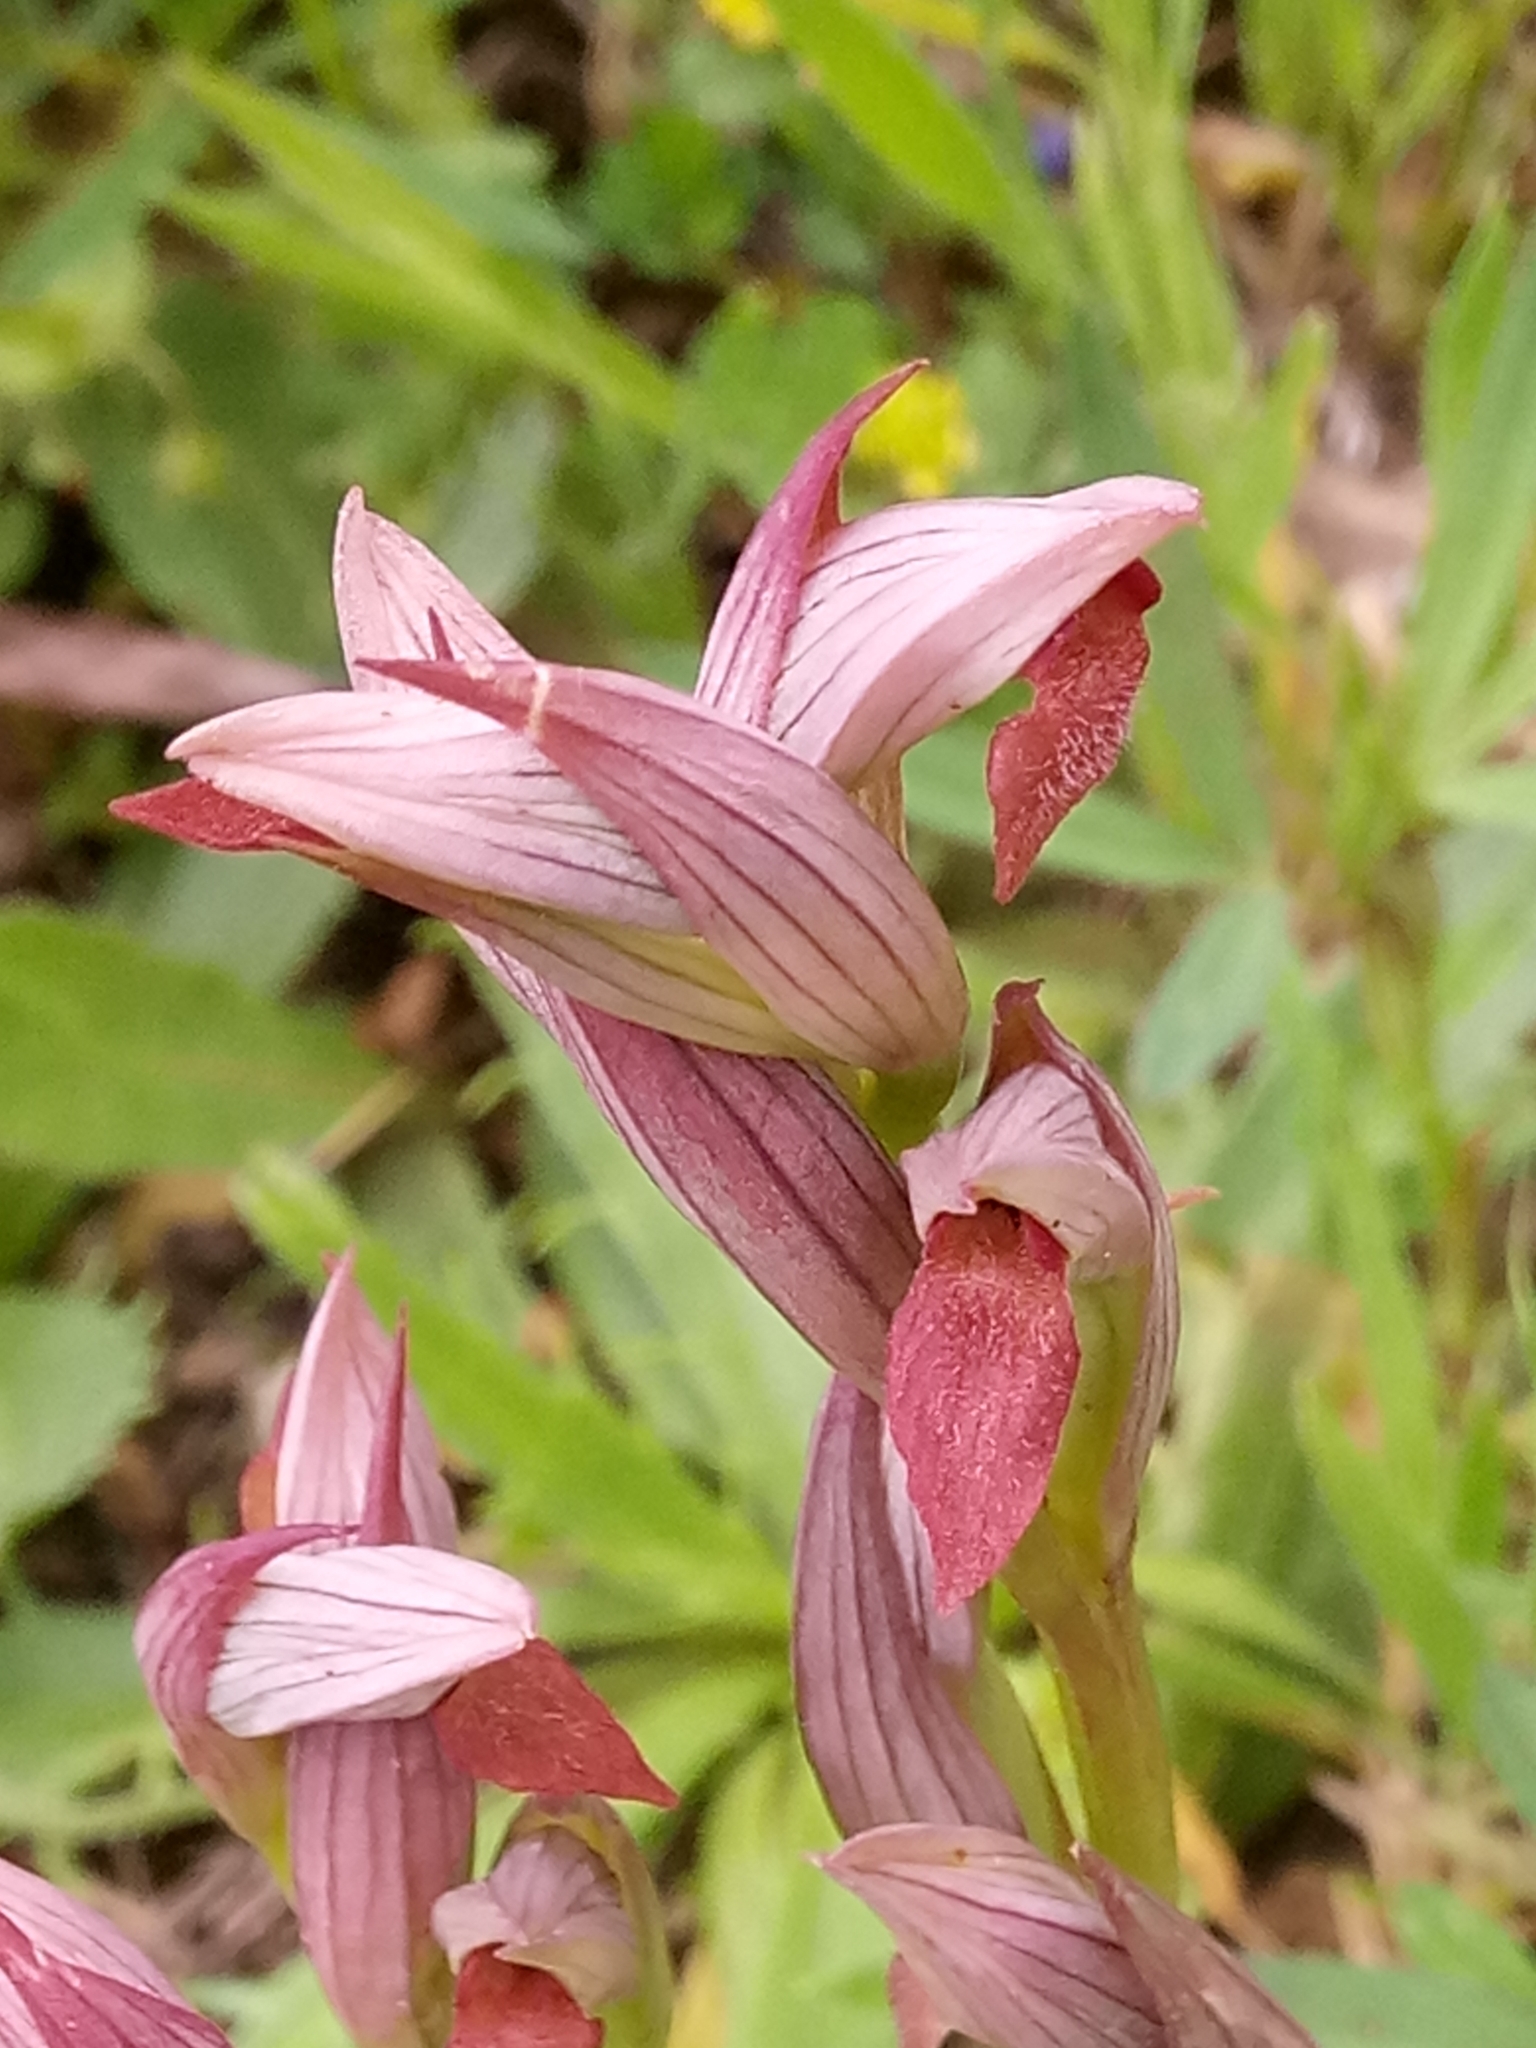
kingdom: Plantae
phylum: Tracheophyta
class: Liliopsida
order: Asparagales
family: Orchidaceae
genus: Serapias
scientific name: Serapias parviflora
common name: Small-flowered tongue-orchid
